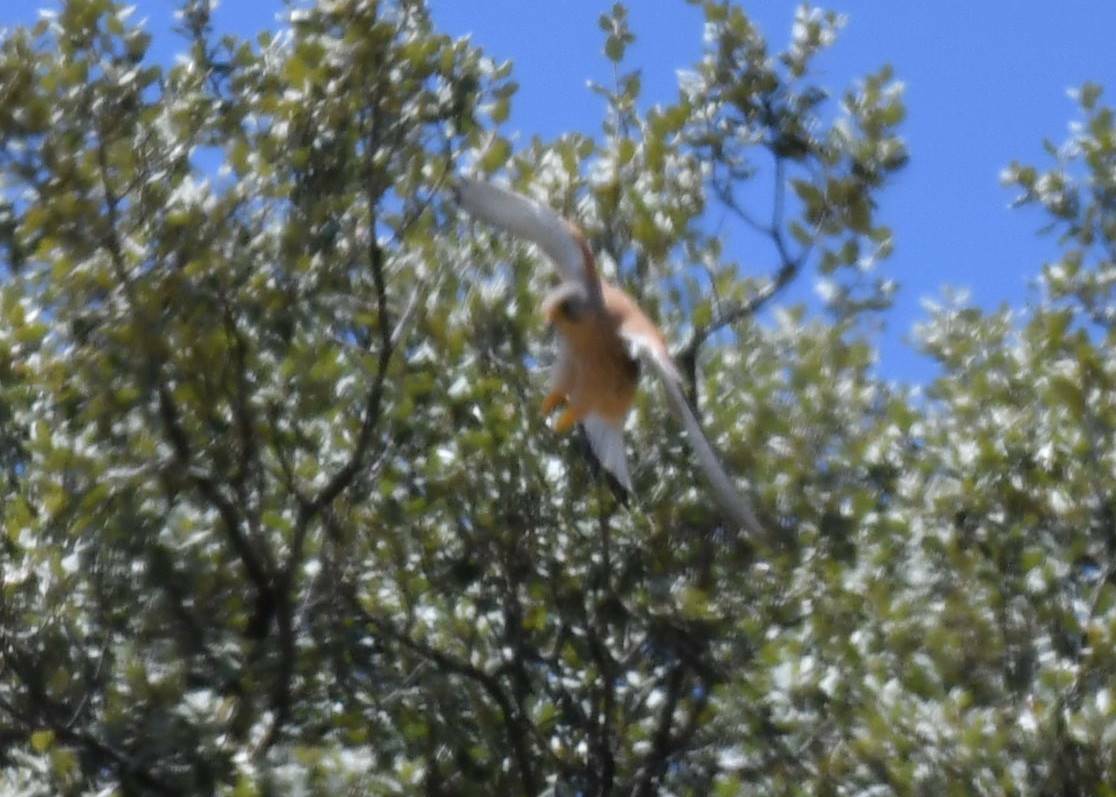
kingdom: Animalia
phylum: Chordata
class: Aves
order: Falconiformes
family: Falconidae
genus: Falco
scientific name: Falco naumanni
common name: Lesser kestrel
